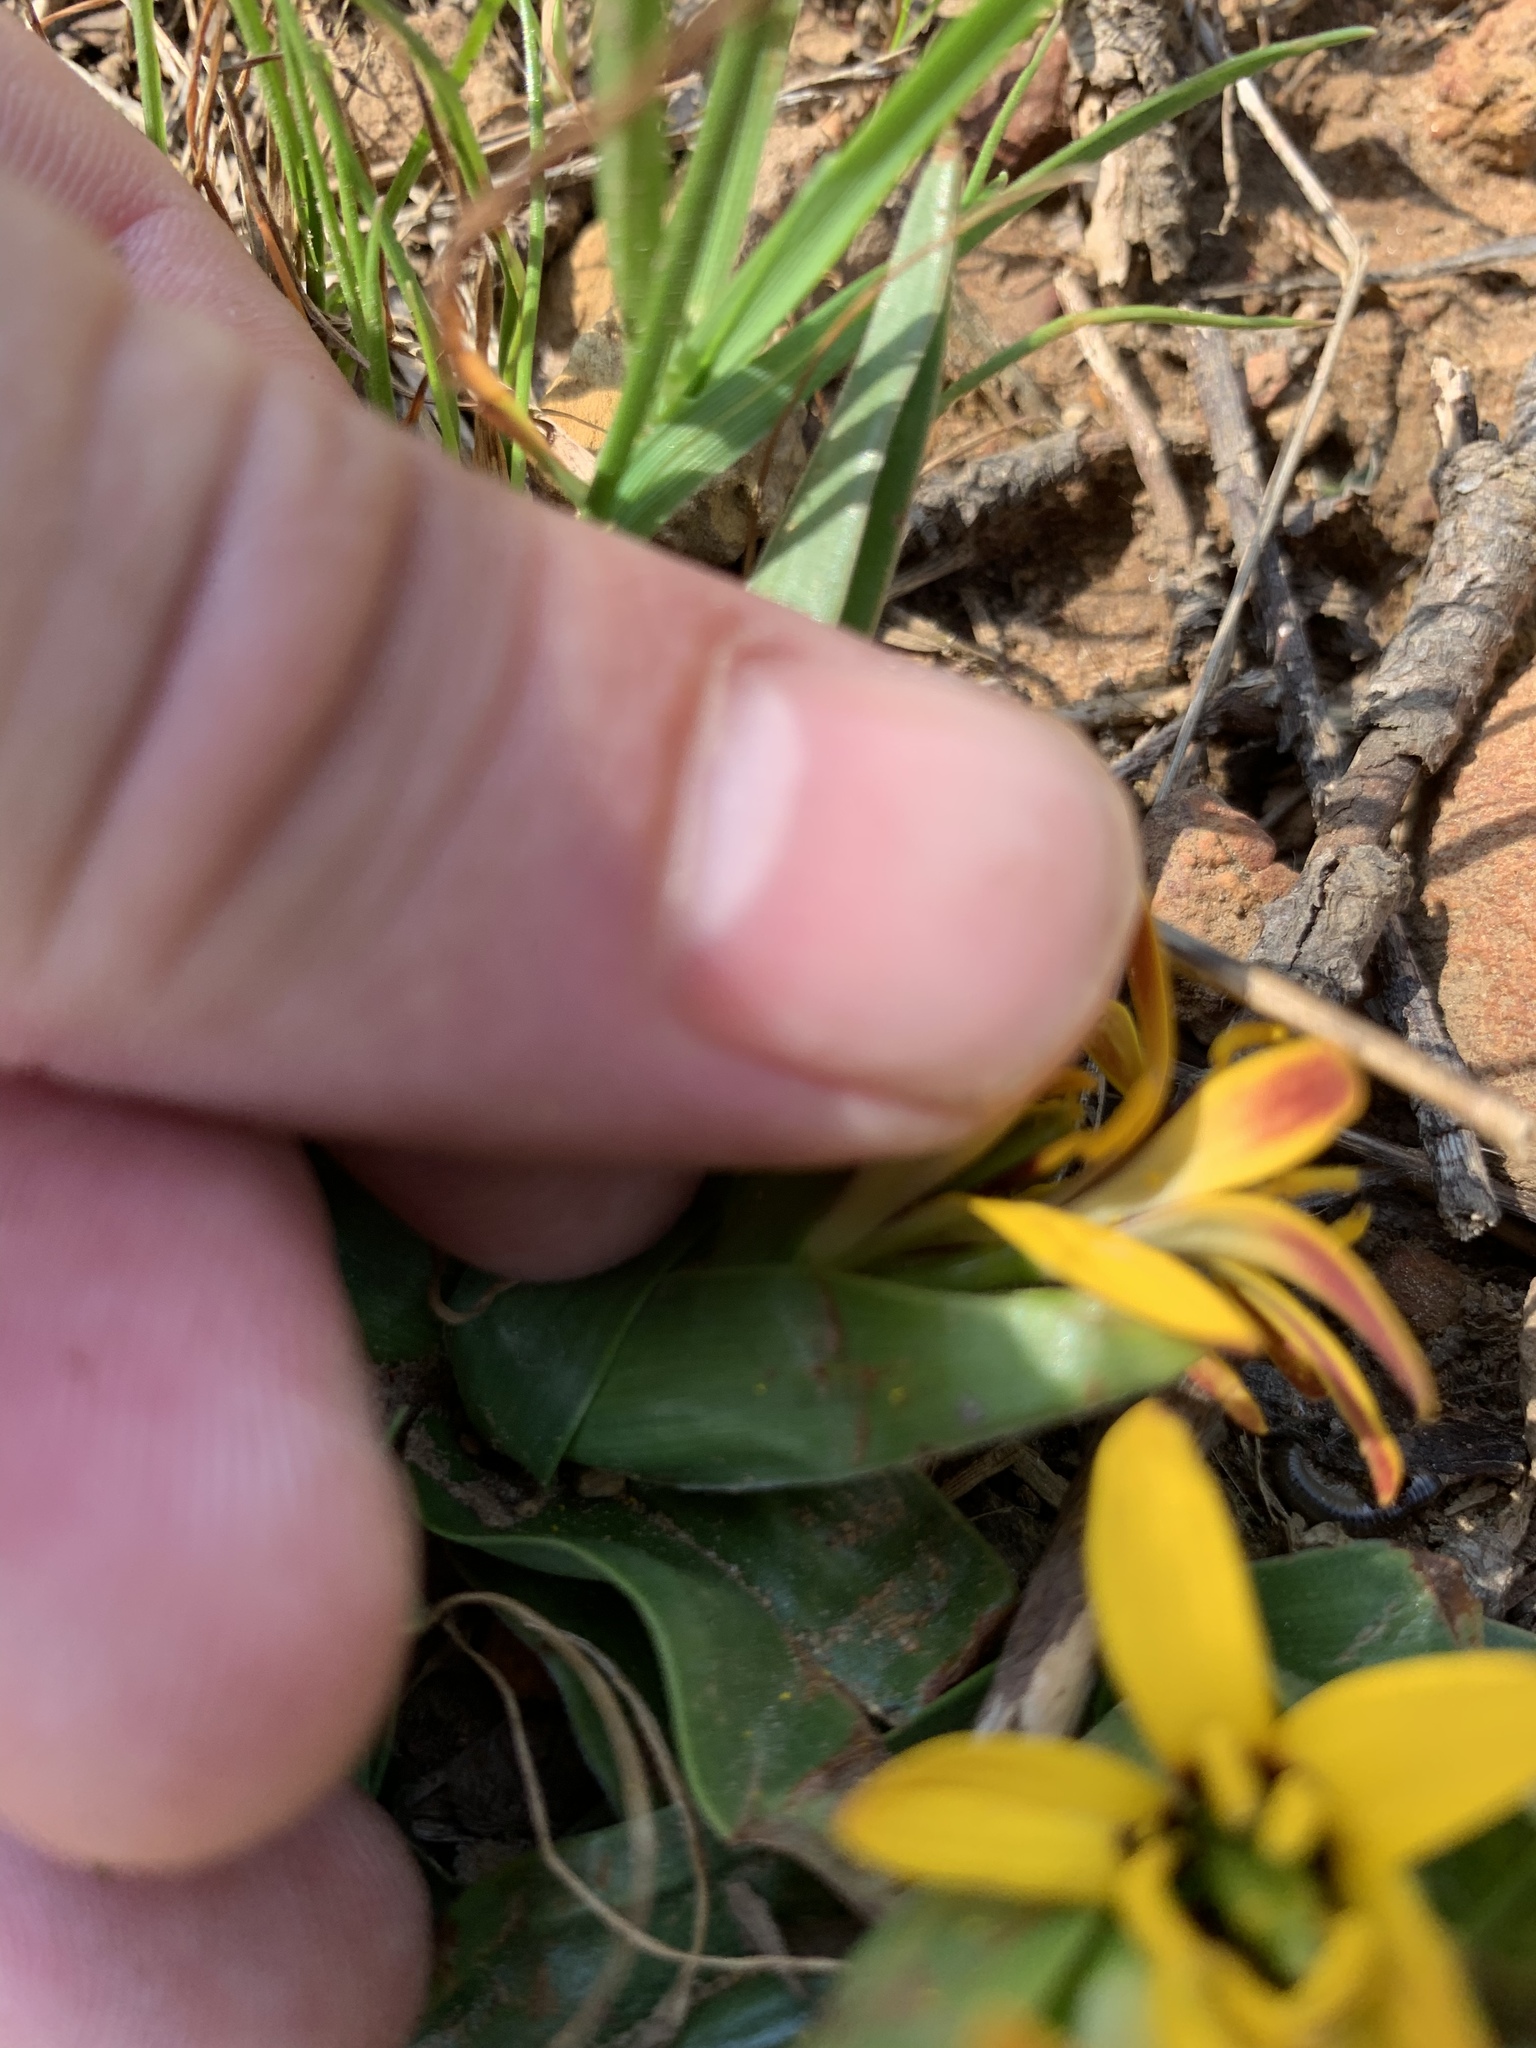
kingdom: Plantae
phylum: Tracheophyta
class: Liliopsida
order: Liliales
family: Colchicaceae
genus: Baeometra
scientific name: Baeometra uniflora
